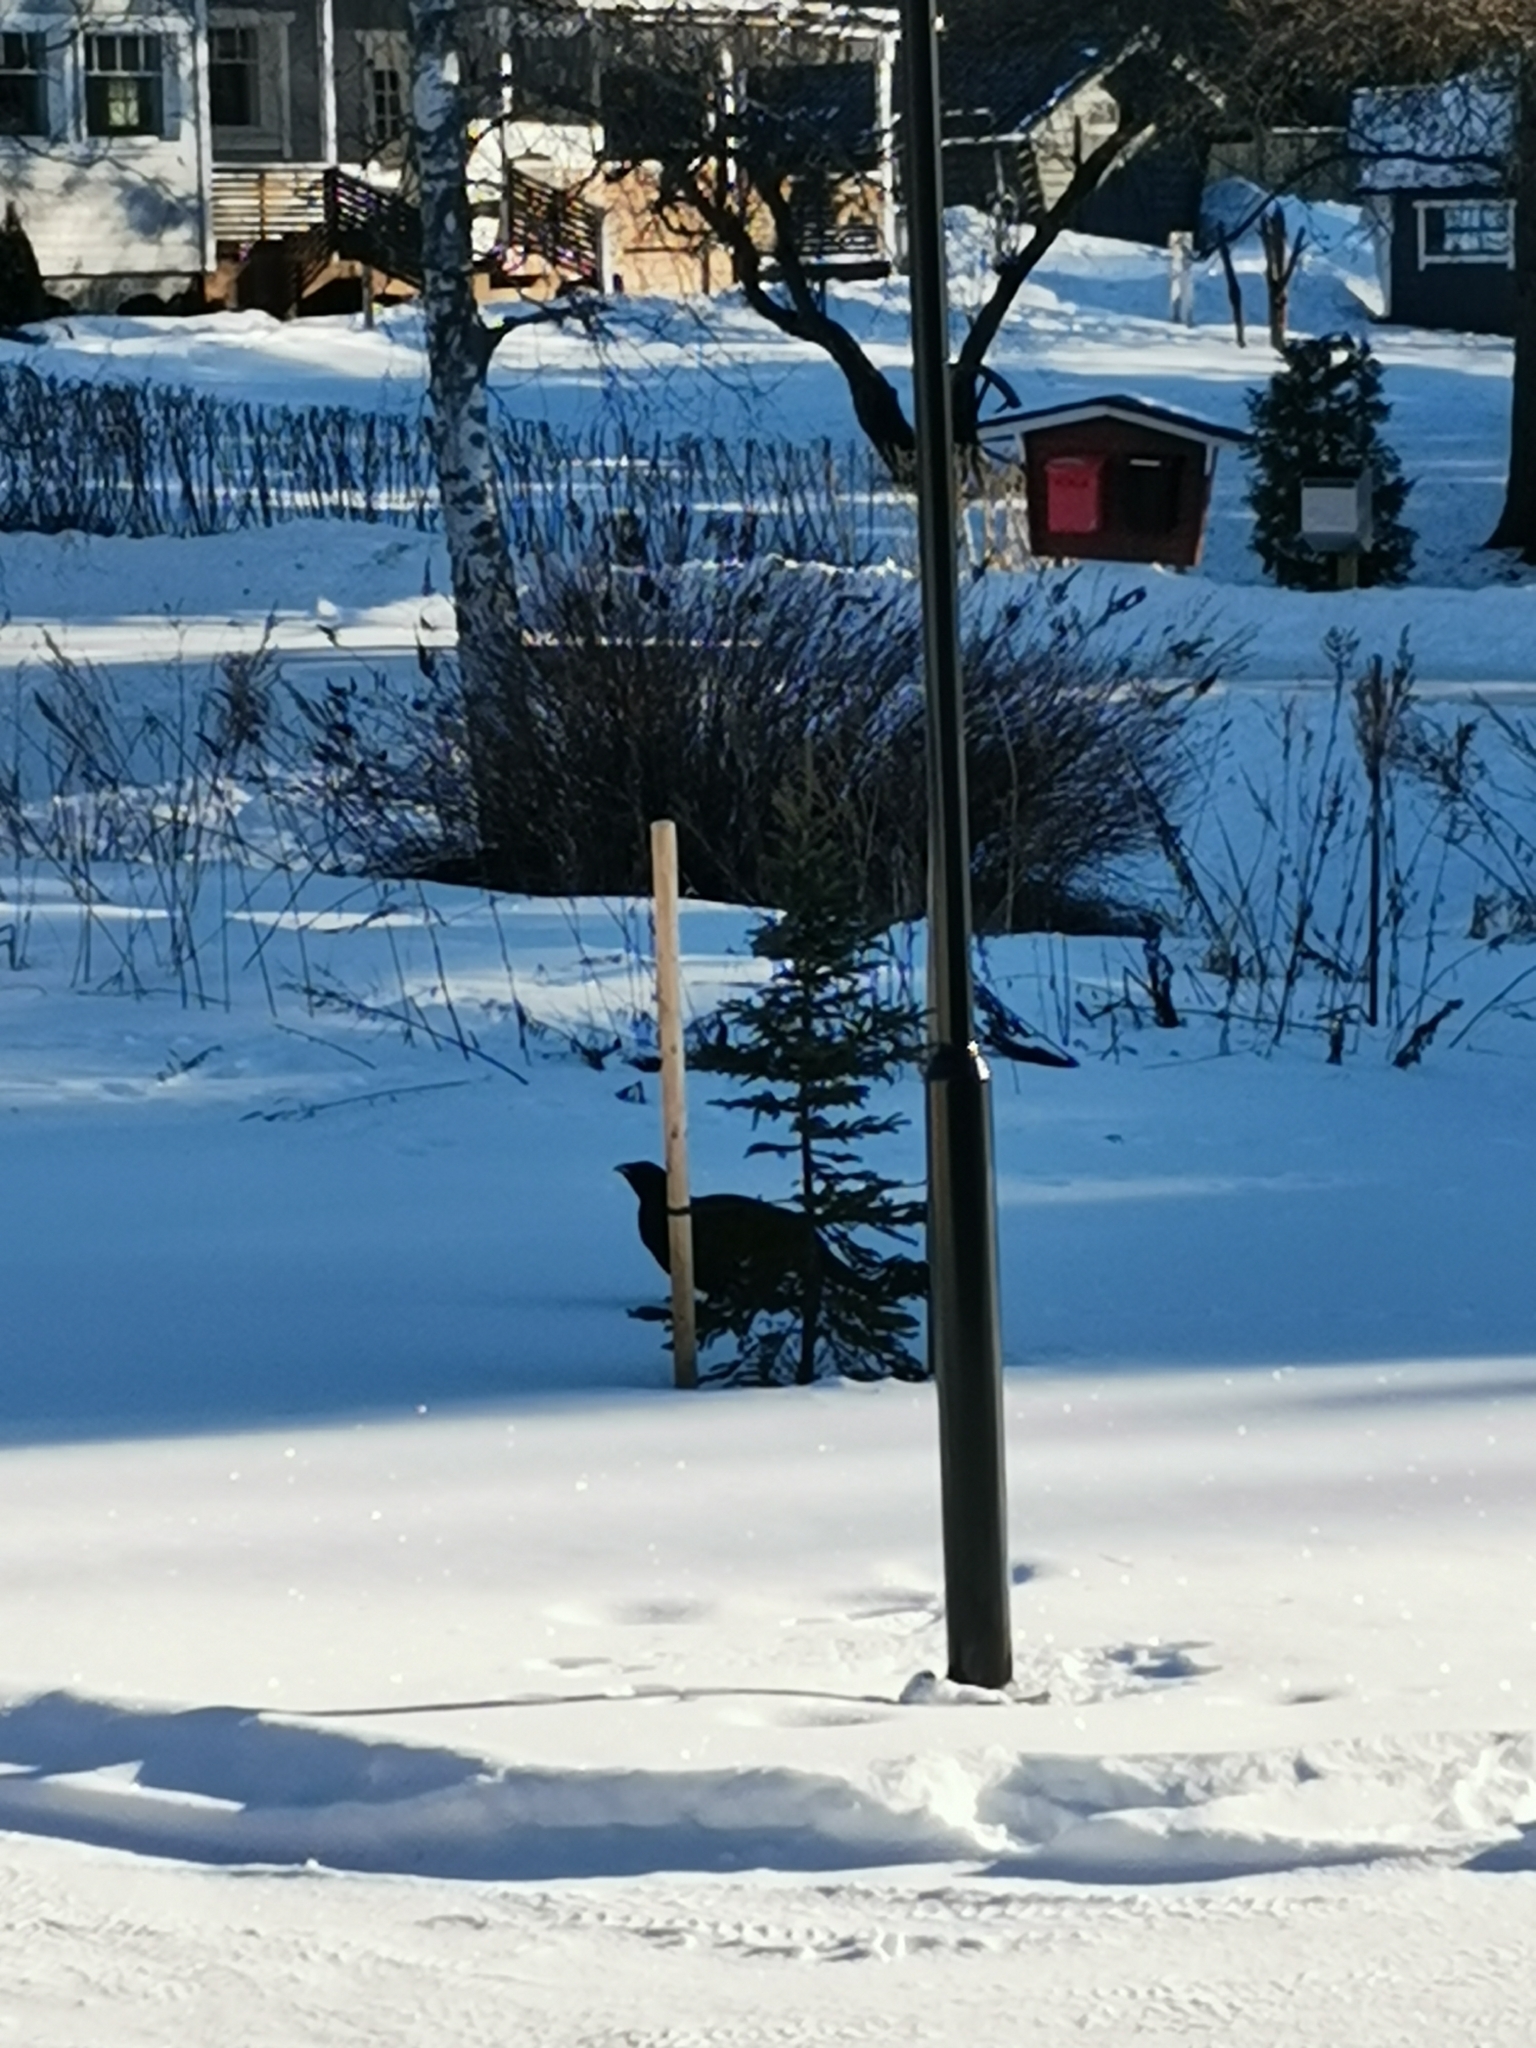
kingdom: Animalia
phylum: Chordata
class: Aves
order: Galliformes
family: Phasianidae
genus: Tetrao
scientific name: Tetrao urogallus
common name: Western capercaillie
